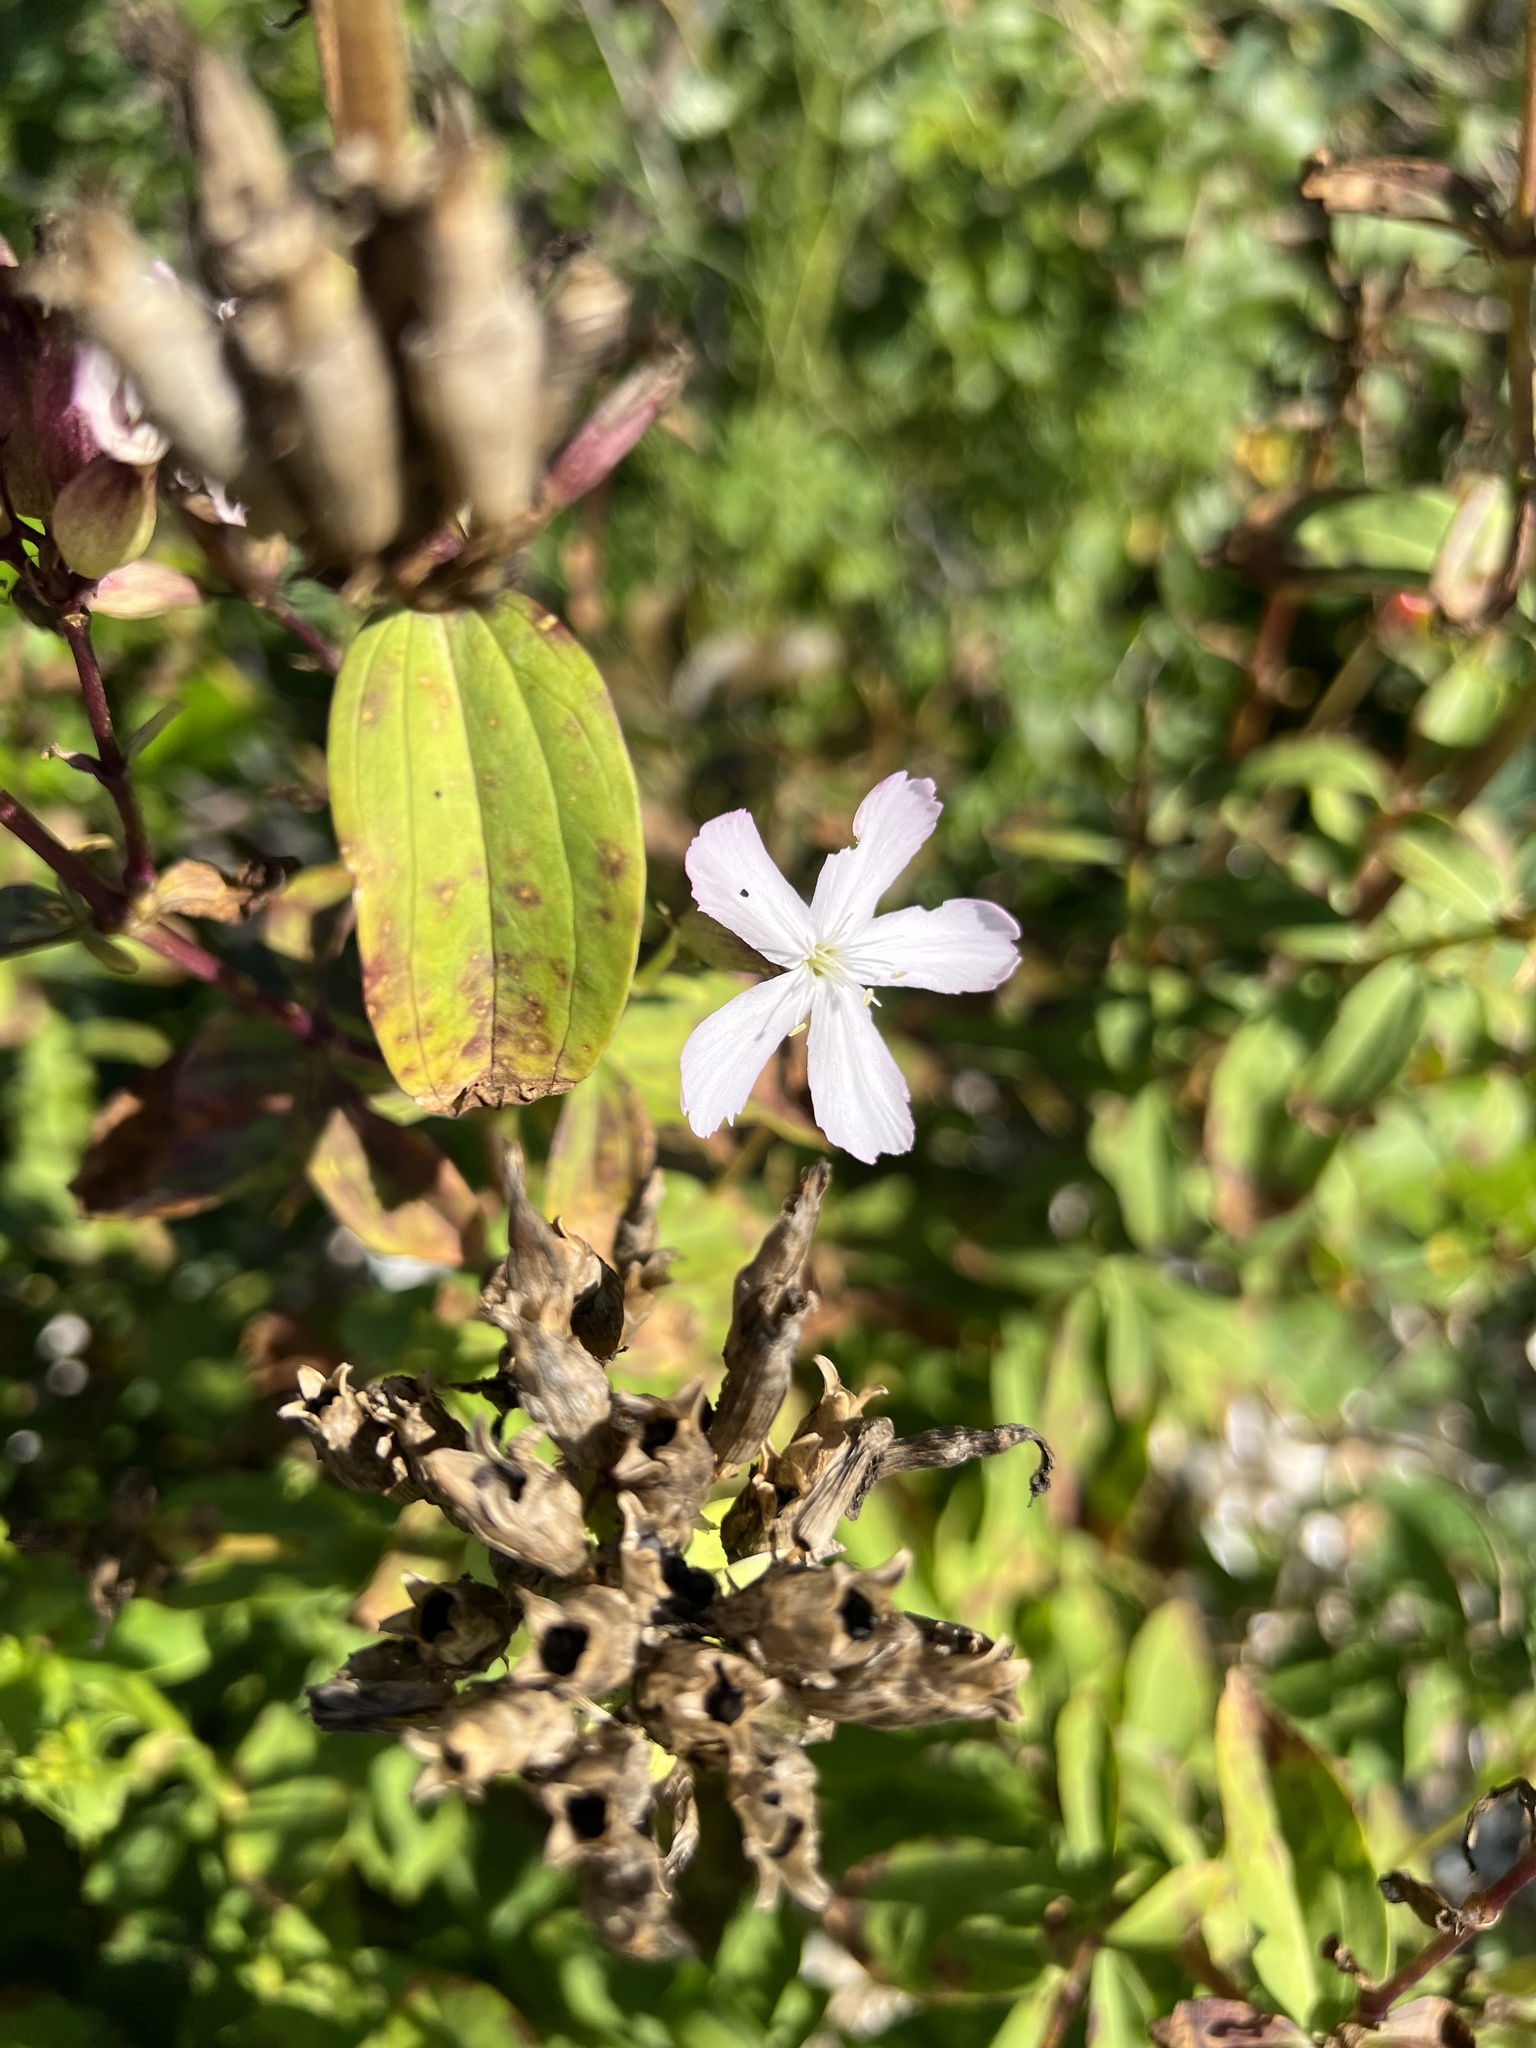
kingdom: Plantae
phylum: Tracheophyta
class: Magnoliopsida
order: Caryophyllales
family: Caryophyllaceae
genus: Saponaria
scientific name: Saponaria officinalis
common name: Soapwort
